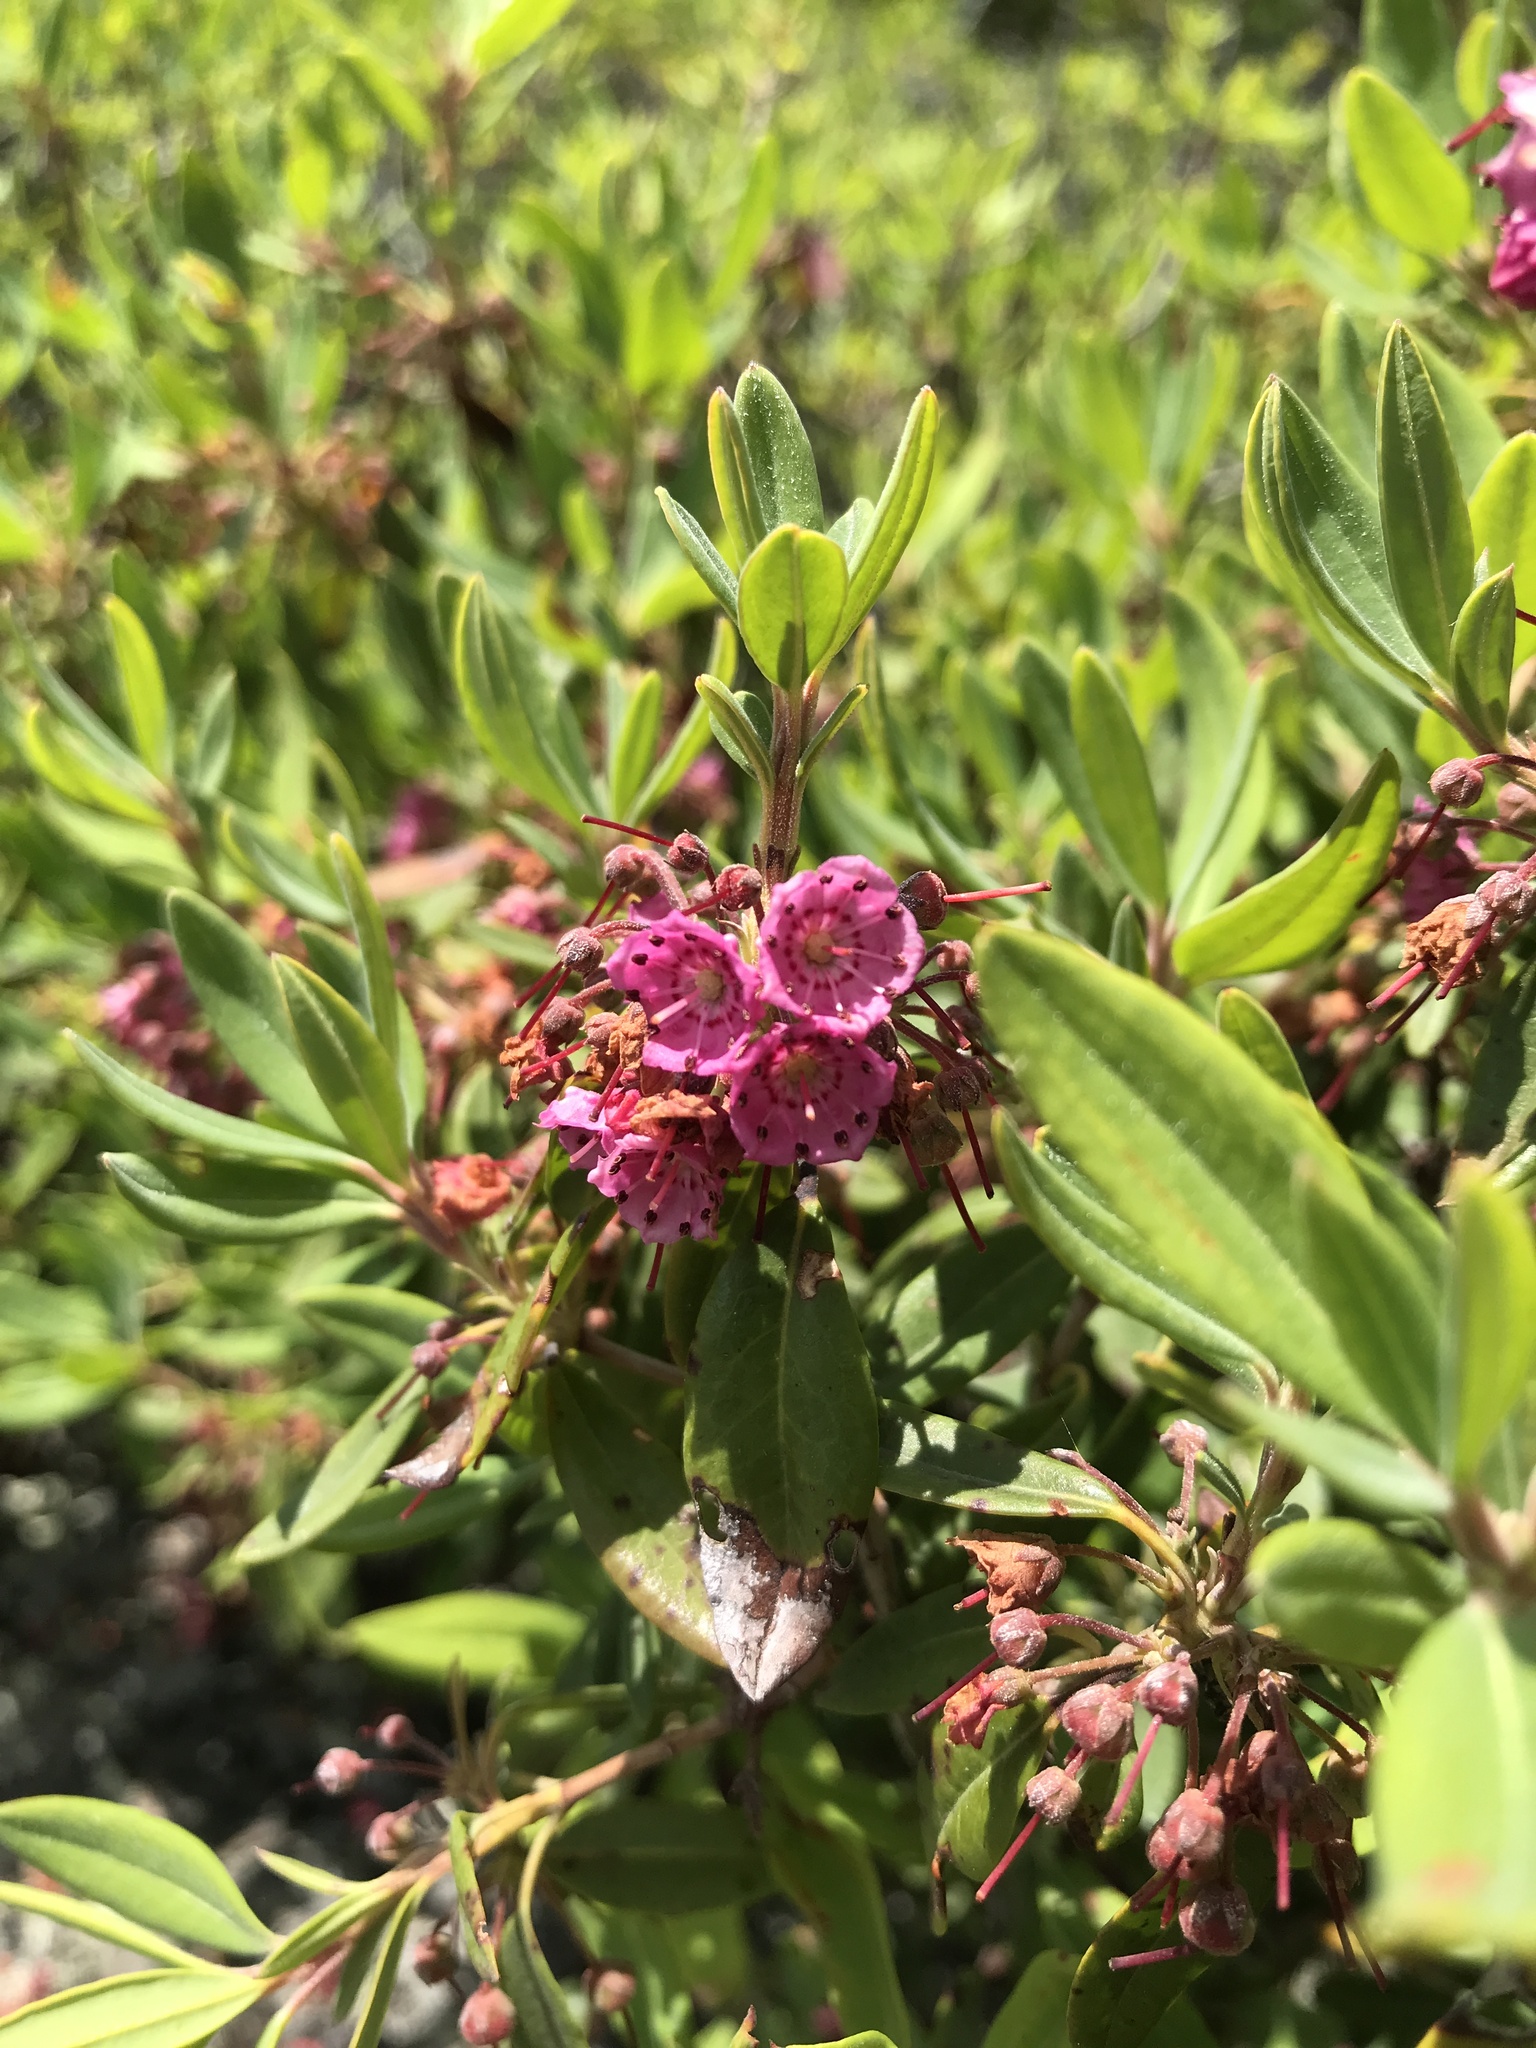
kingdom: Plantae
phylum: Tracheophyta
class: Magnoliopsida
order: Ericales
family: Ericaceae
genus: Kalmia
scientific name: Kalmia angustifolia
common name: Sheep-laurel
